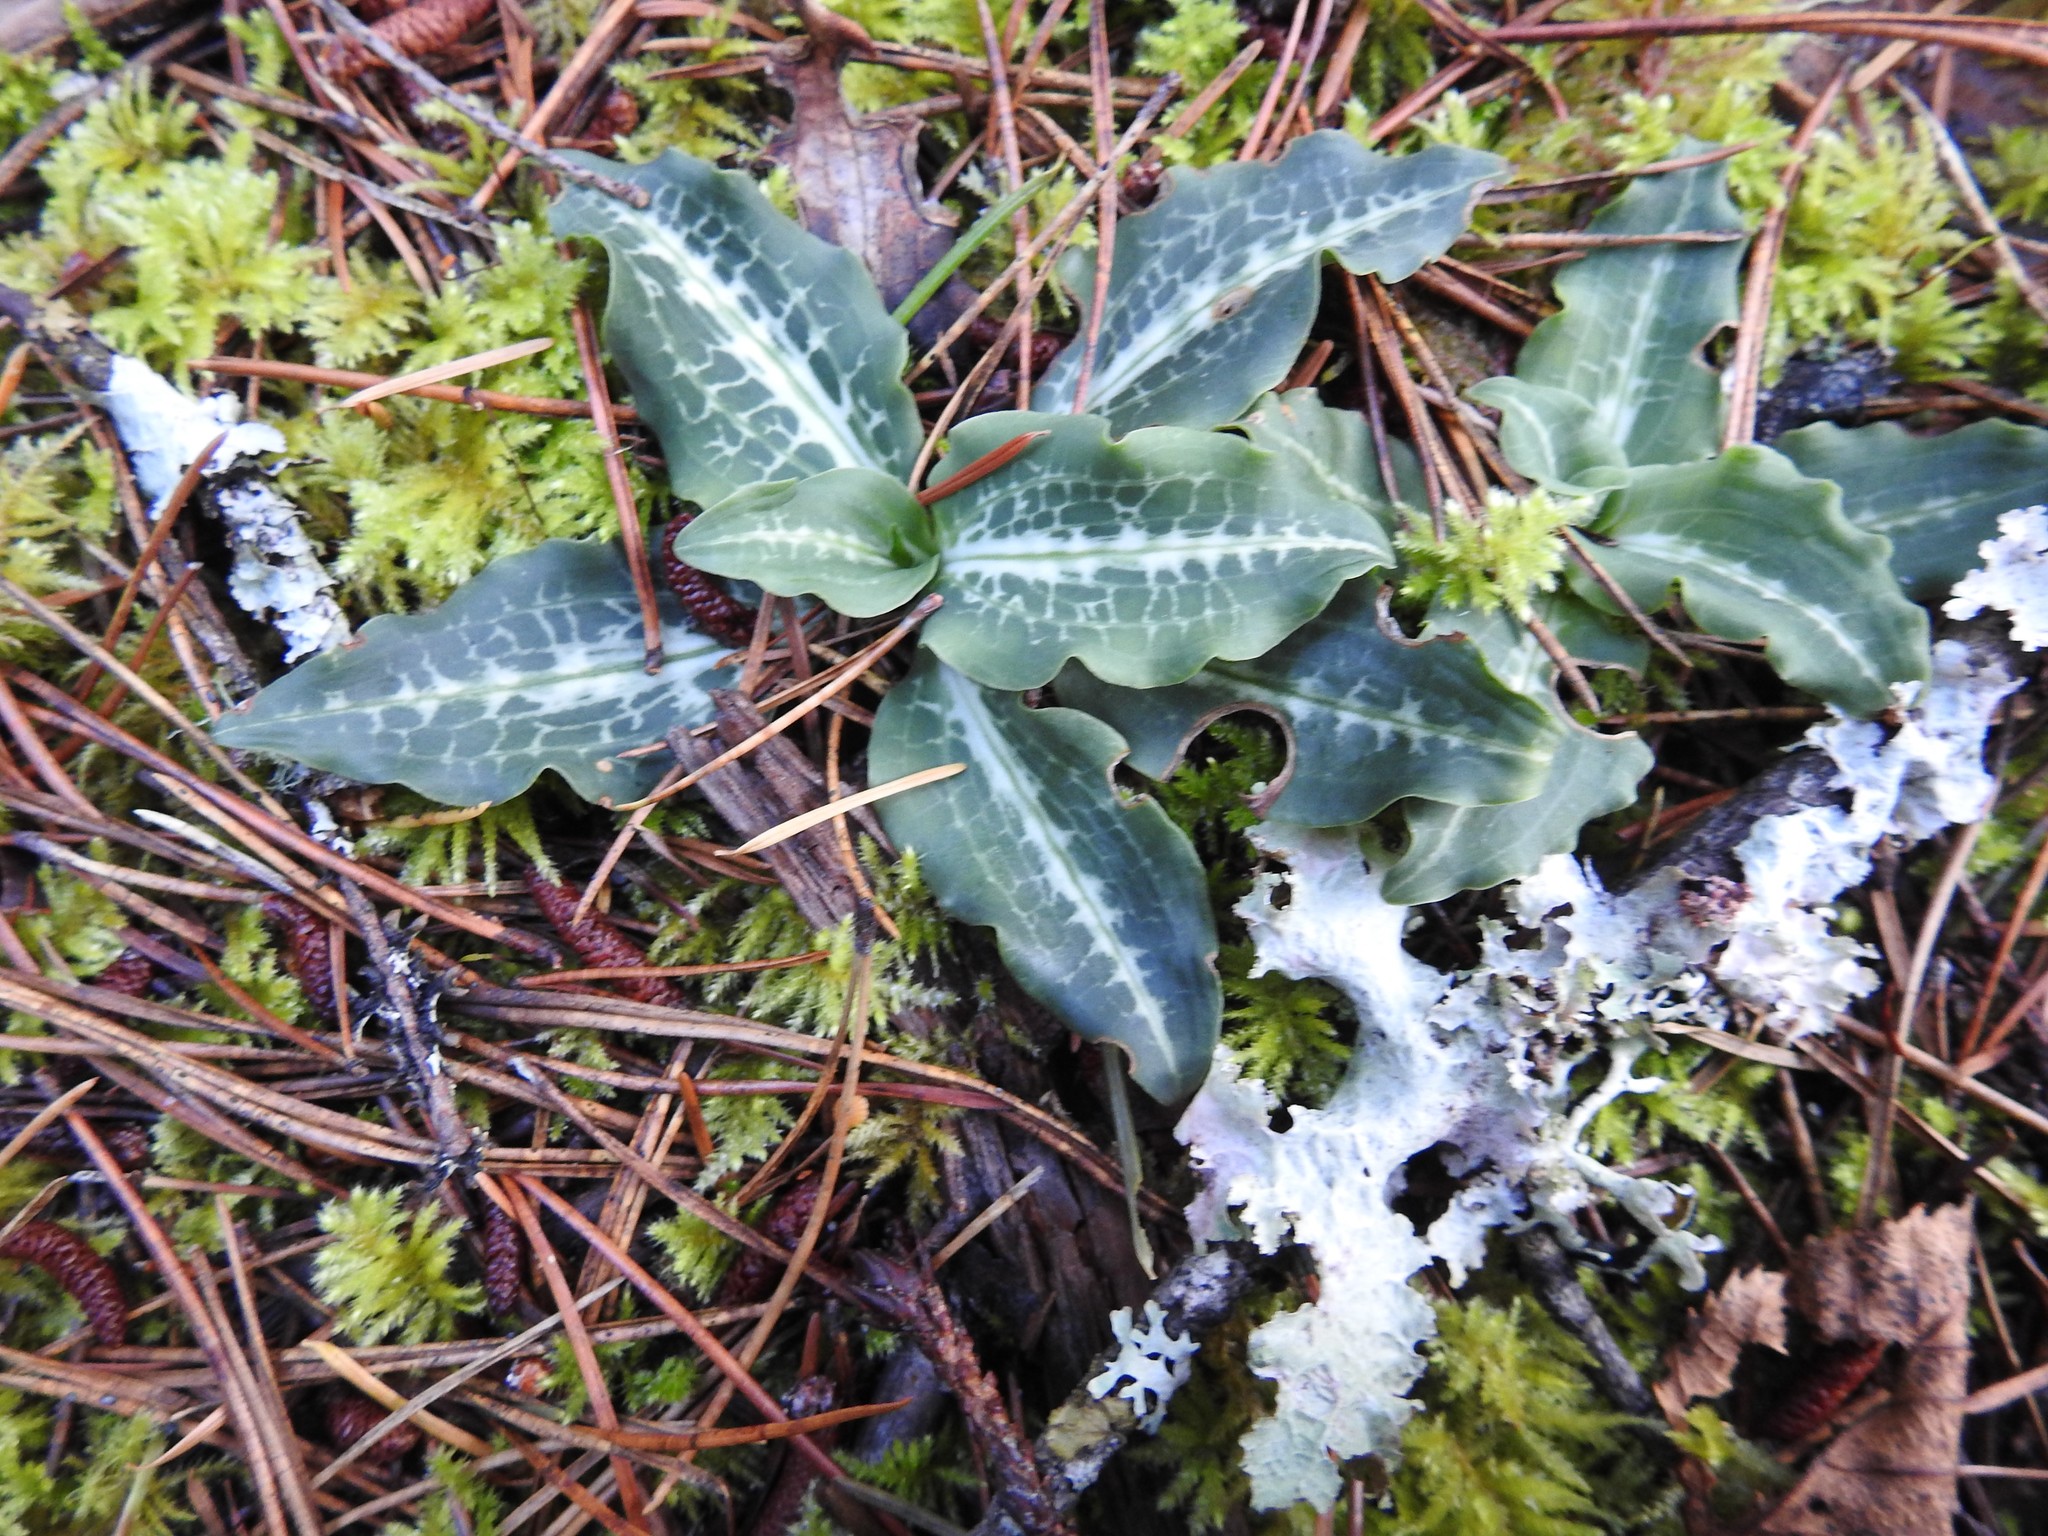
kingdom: Plantae
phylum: Tracheophyta
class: Liliopsida
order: Asparagales
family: Orchidaceae
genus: Goodyera
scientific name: Goodyera oblongifolia
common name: Giant rattlesnake-plantain
